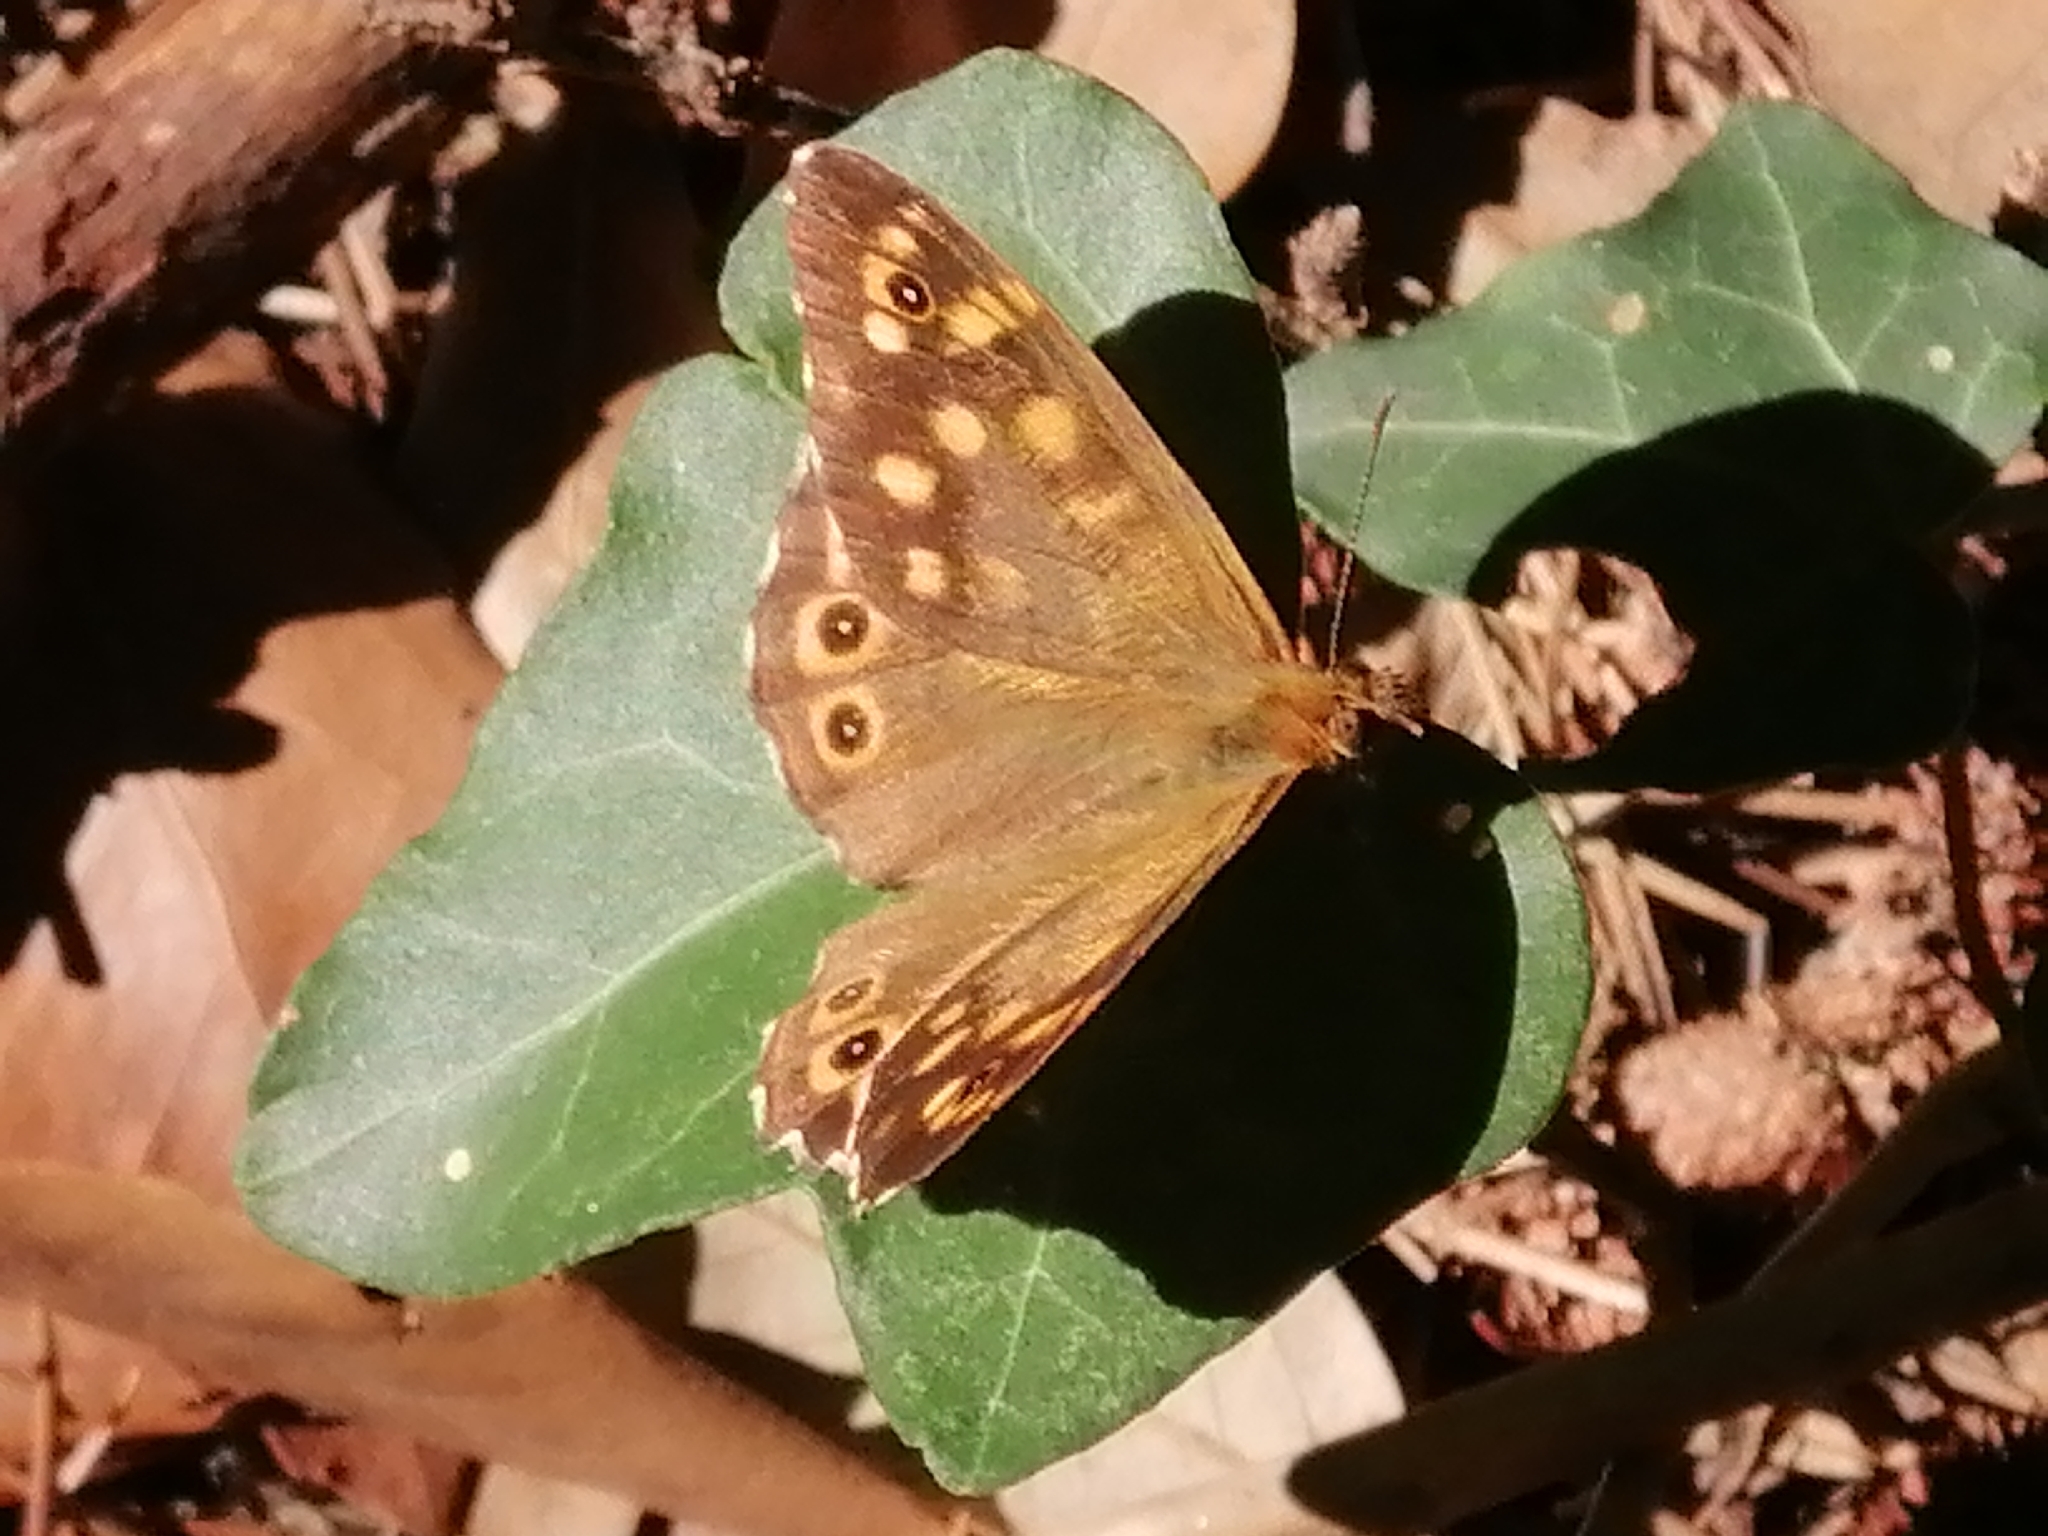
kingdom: Animalia
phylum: Arthropoda
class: Insecta
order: Lepidoptera
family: Nymphalidae
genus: Pararge
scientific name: Pararge aegeria
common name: Speckled wood
